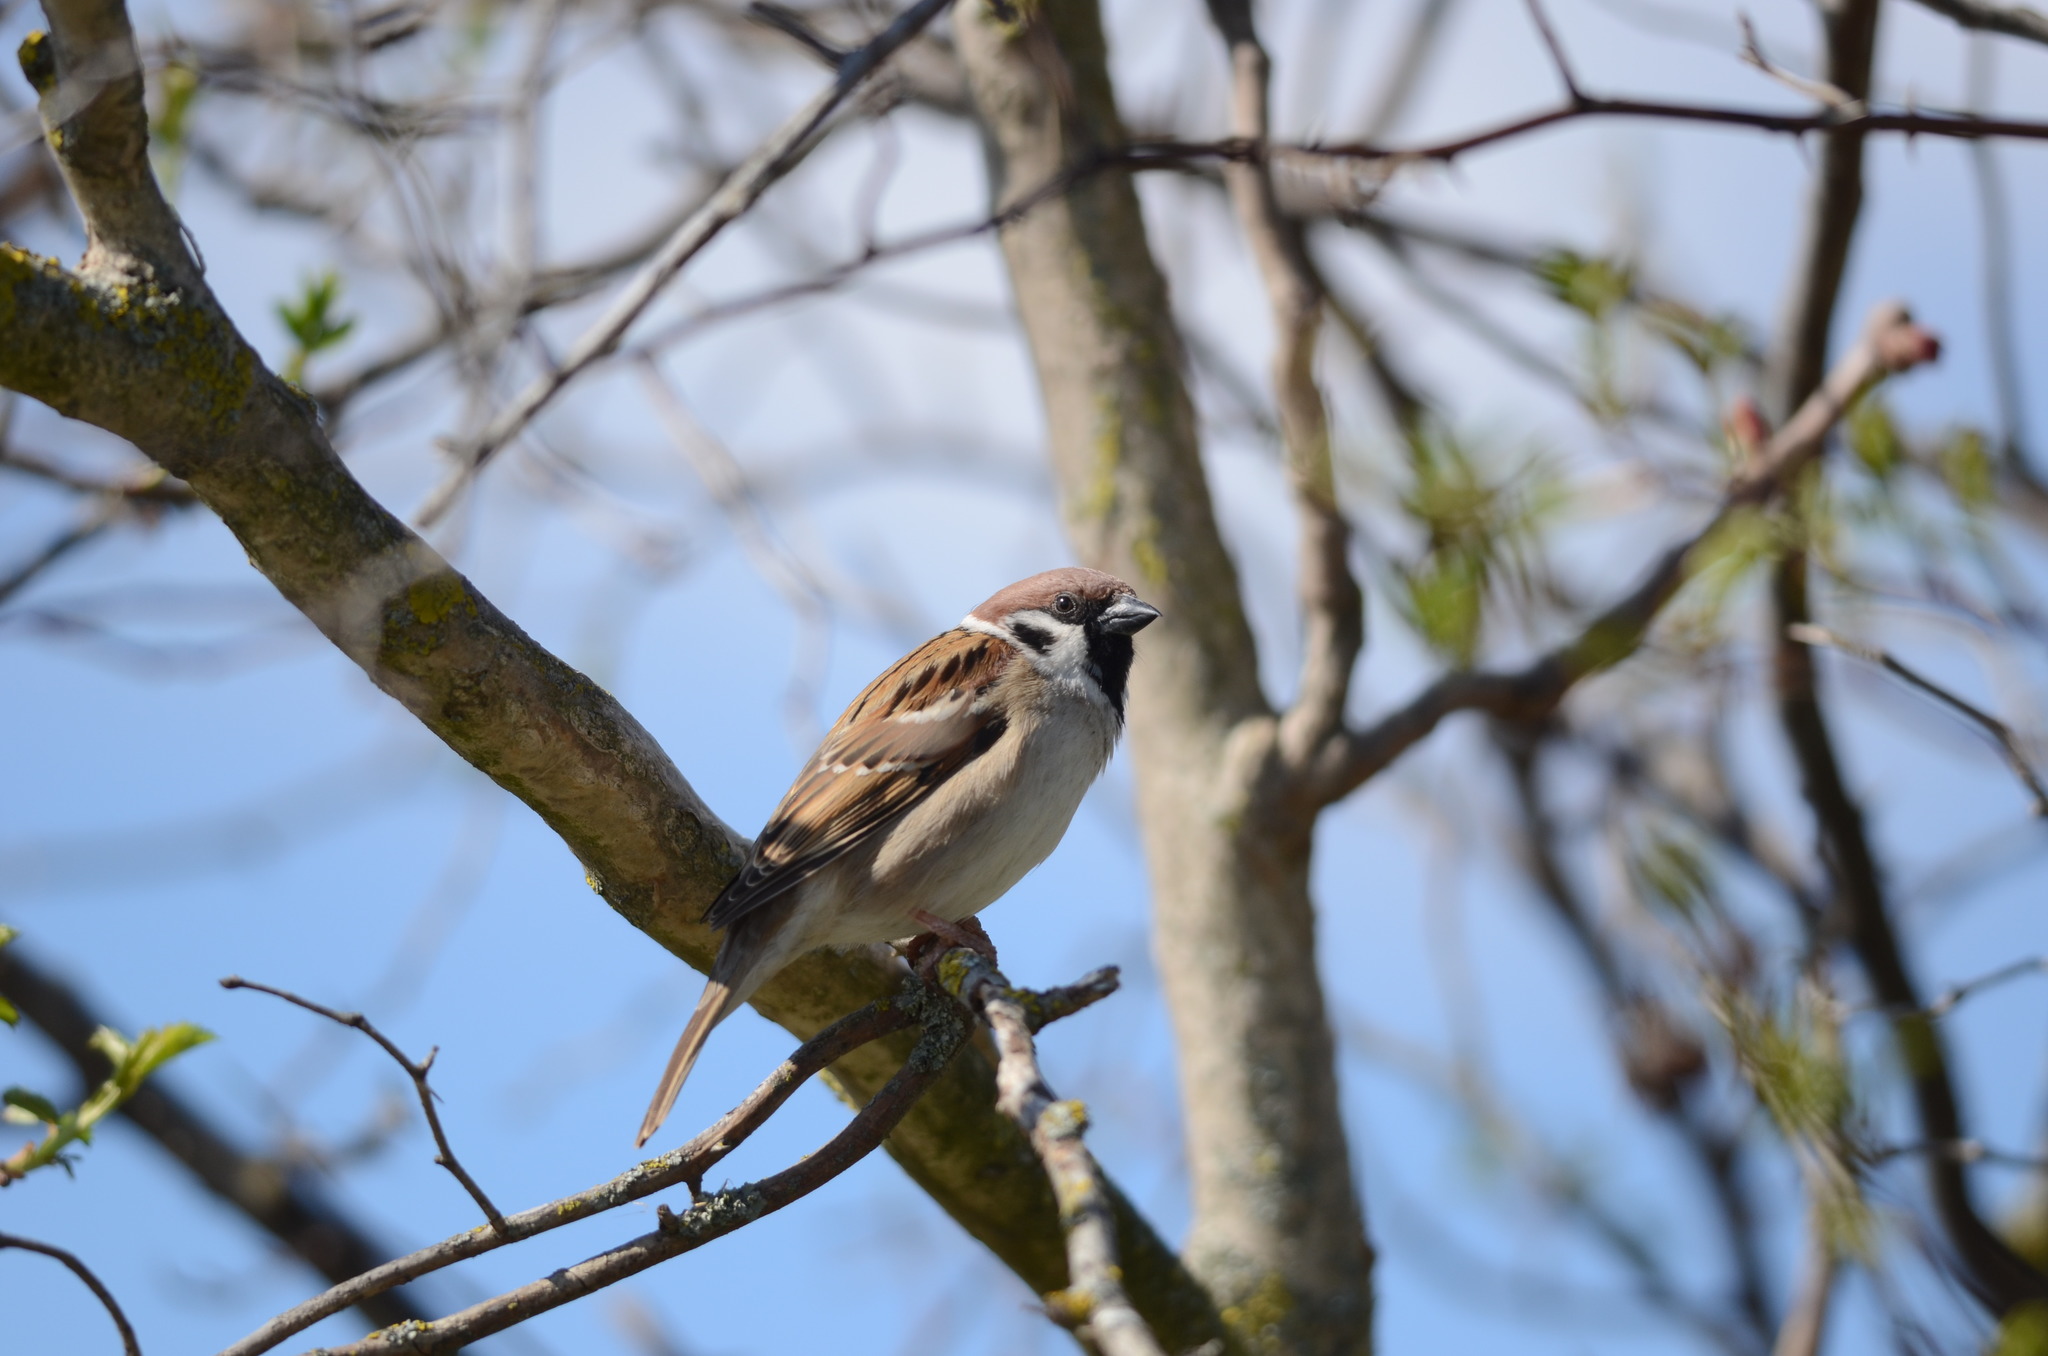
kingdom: Animalia
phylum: Chordata
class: Aves
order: Passeriformes
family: Passeridae
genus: Passer
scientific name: Passer montanus
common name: Eurasian tree sparrow
